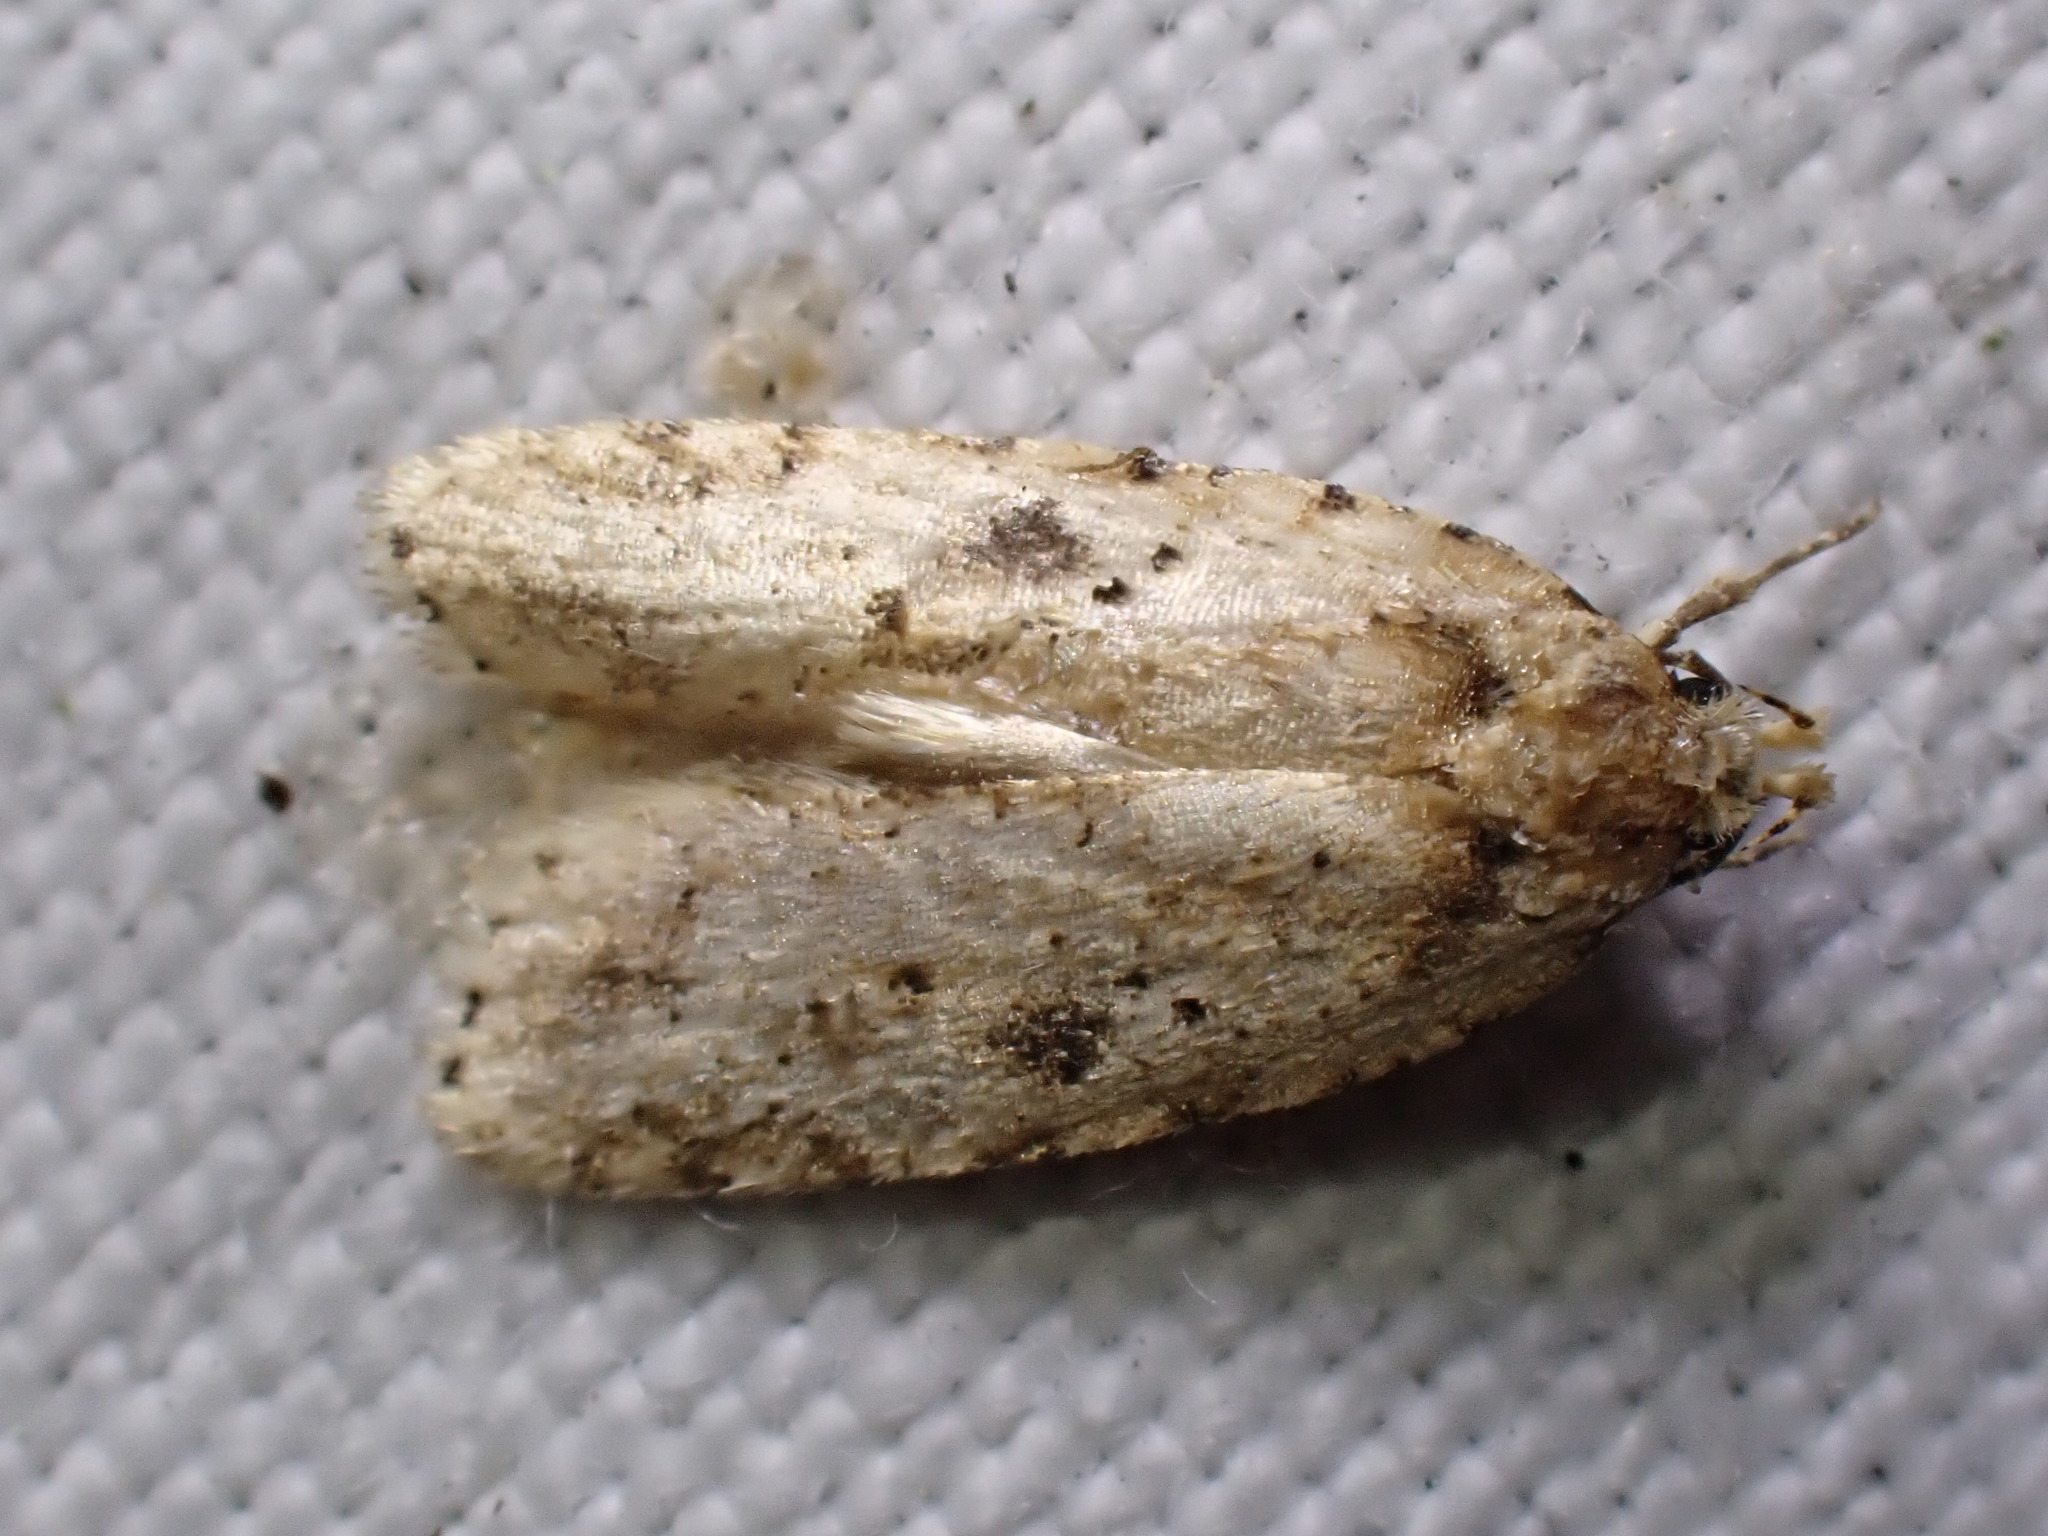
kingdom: Animalia
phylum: Arthropoda
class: Insecta
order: Lepidoptera
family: Depressariidae
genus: Agonopterix
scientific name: Agonopterix arenella
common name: Brindled flat-body
